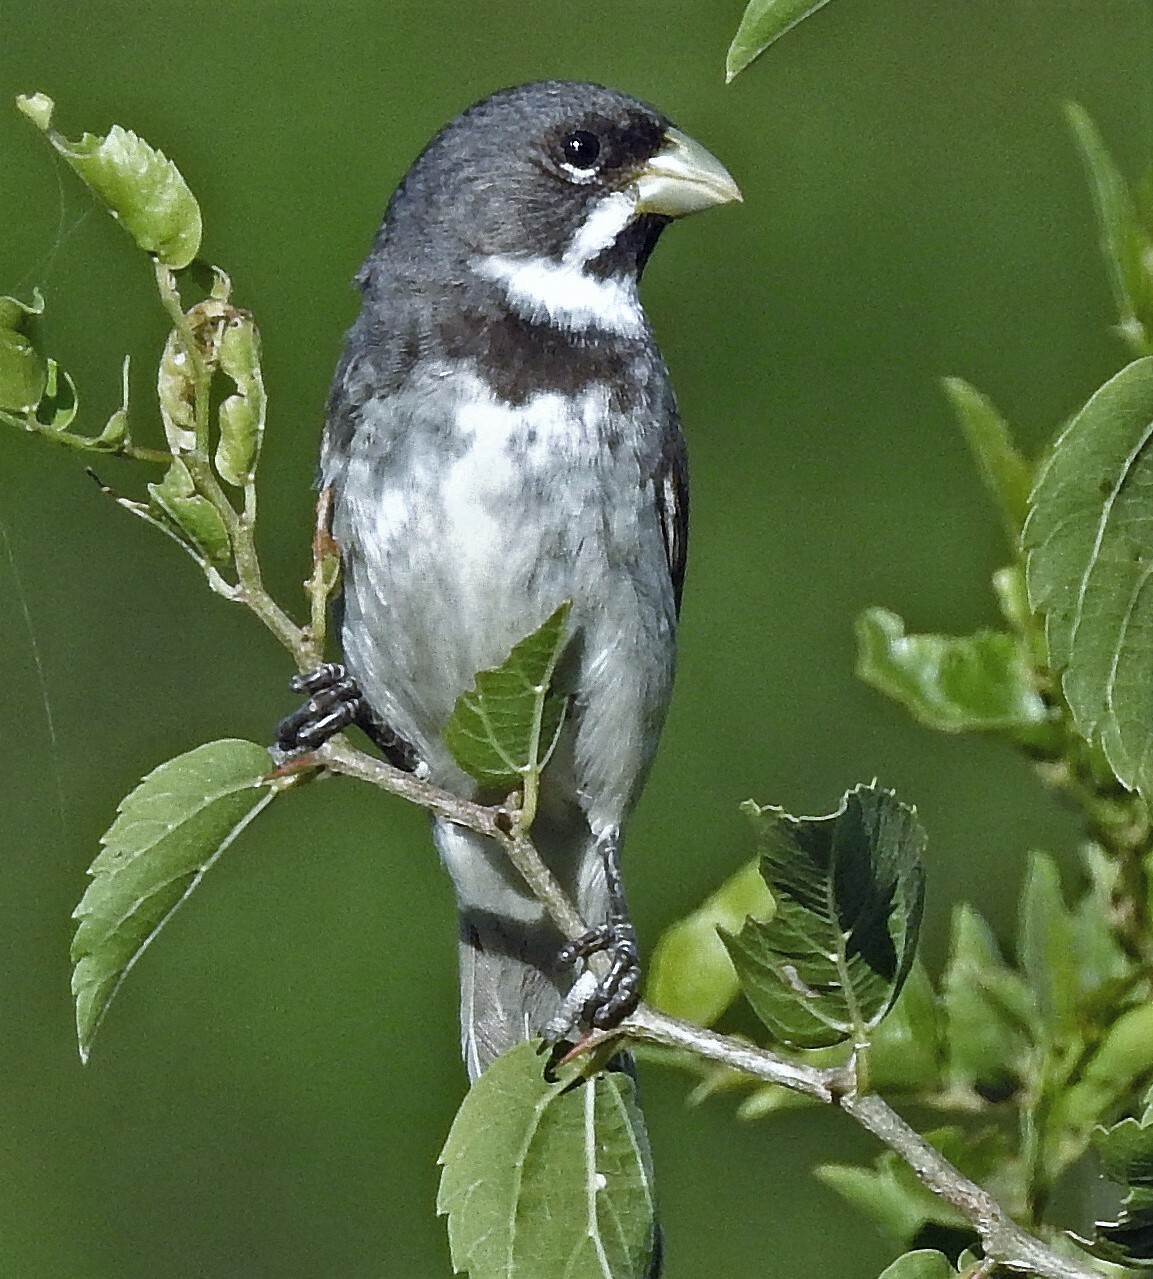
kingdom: Animalia
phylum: Chordata
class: Aves
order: Passeriformes
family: Thraupidae
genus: Sporophila
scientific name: Sporophila caerulescens
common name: Double-collared seedeater
